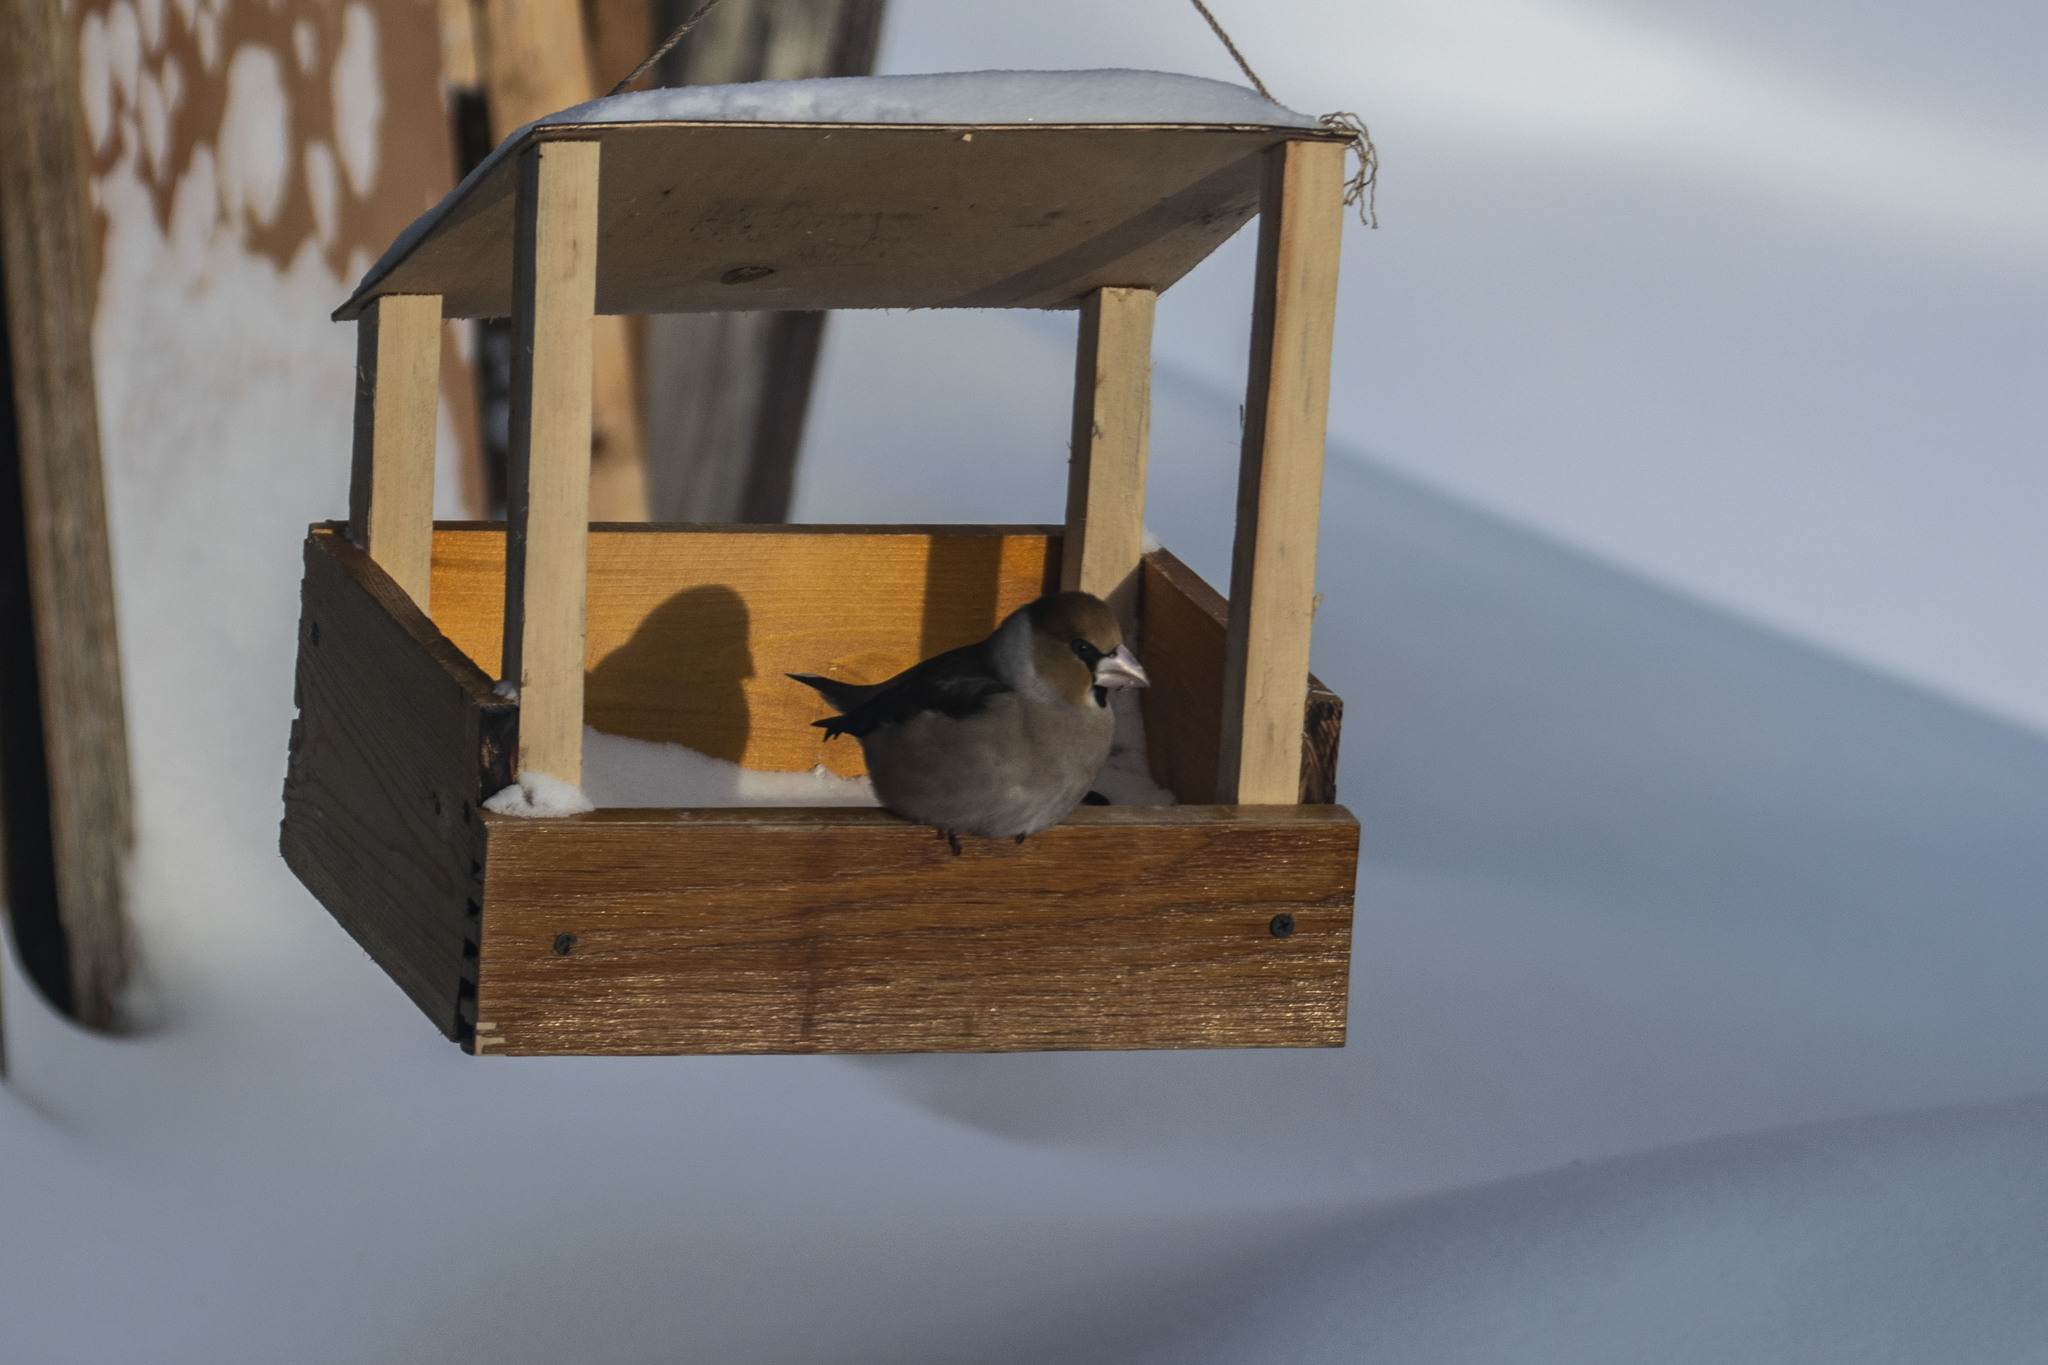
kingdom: Animalia
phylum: Chordata
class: Aves
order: Passeriformes
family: Fringillidae
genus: Coccothraustes
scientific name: Coccothraustes coccothraustes
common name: Hawfinch
